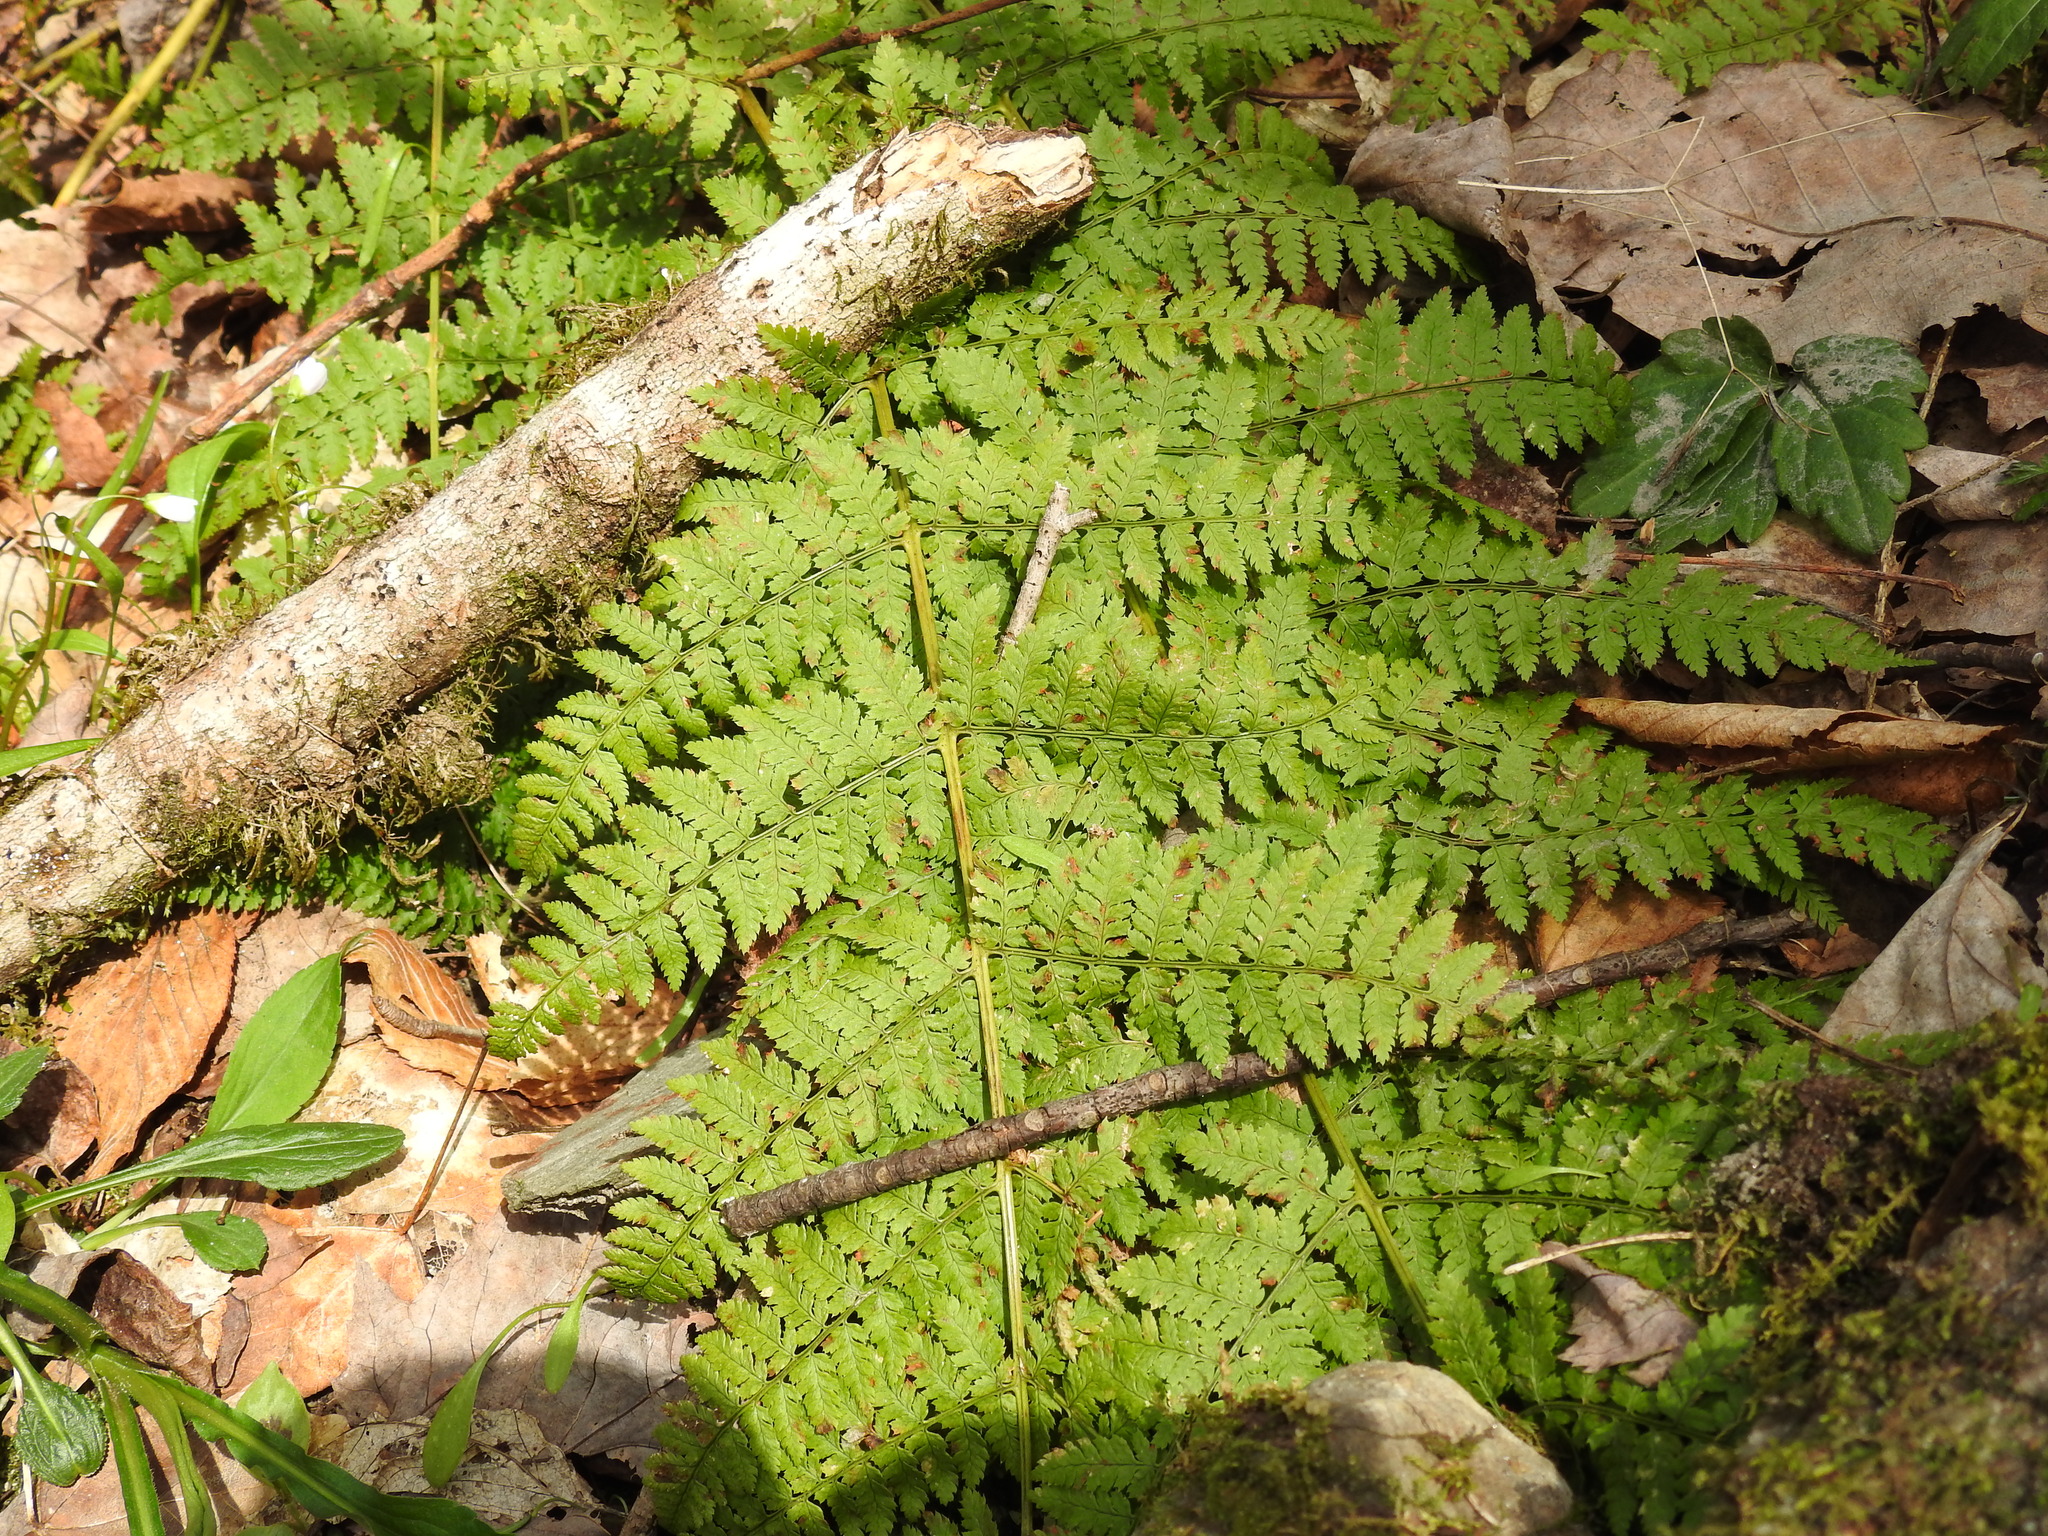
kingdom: Plantae
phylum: Tracheophyta
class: Polypodiopsida
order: Polypodiales
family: Dryopteridaceae
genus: Dryopteris
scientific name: Dryopteris intermedia
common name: Evergreen wood fern
